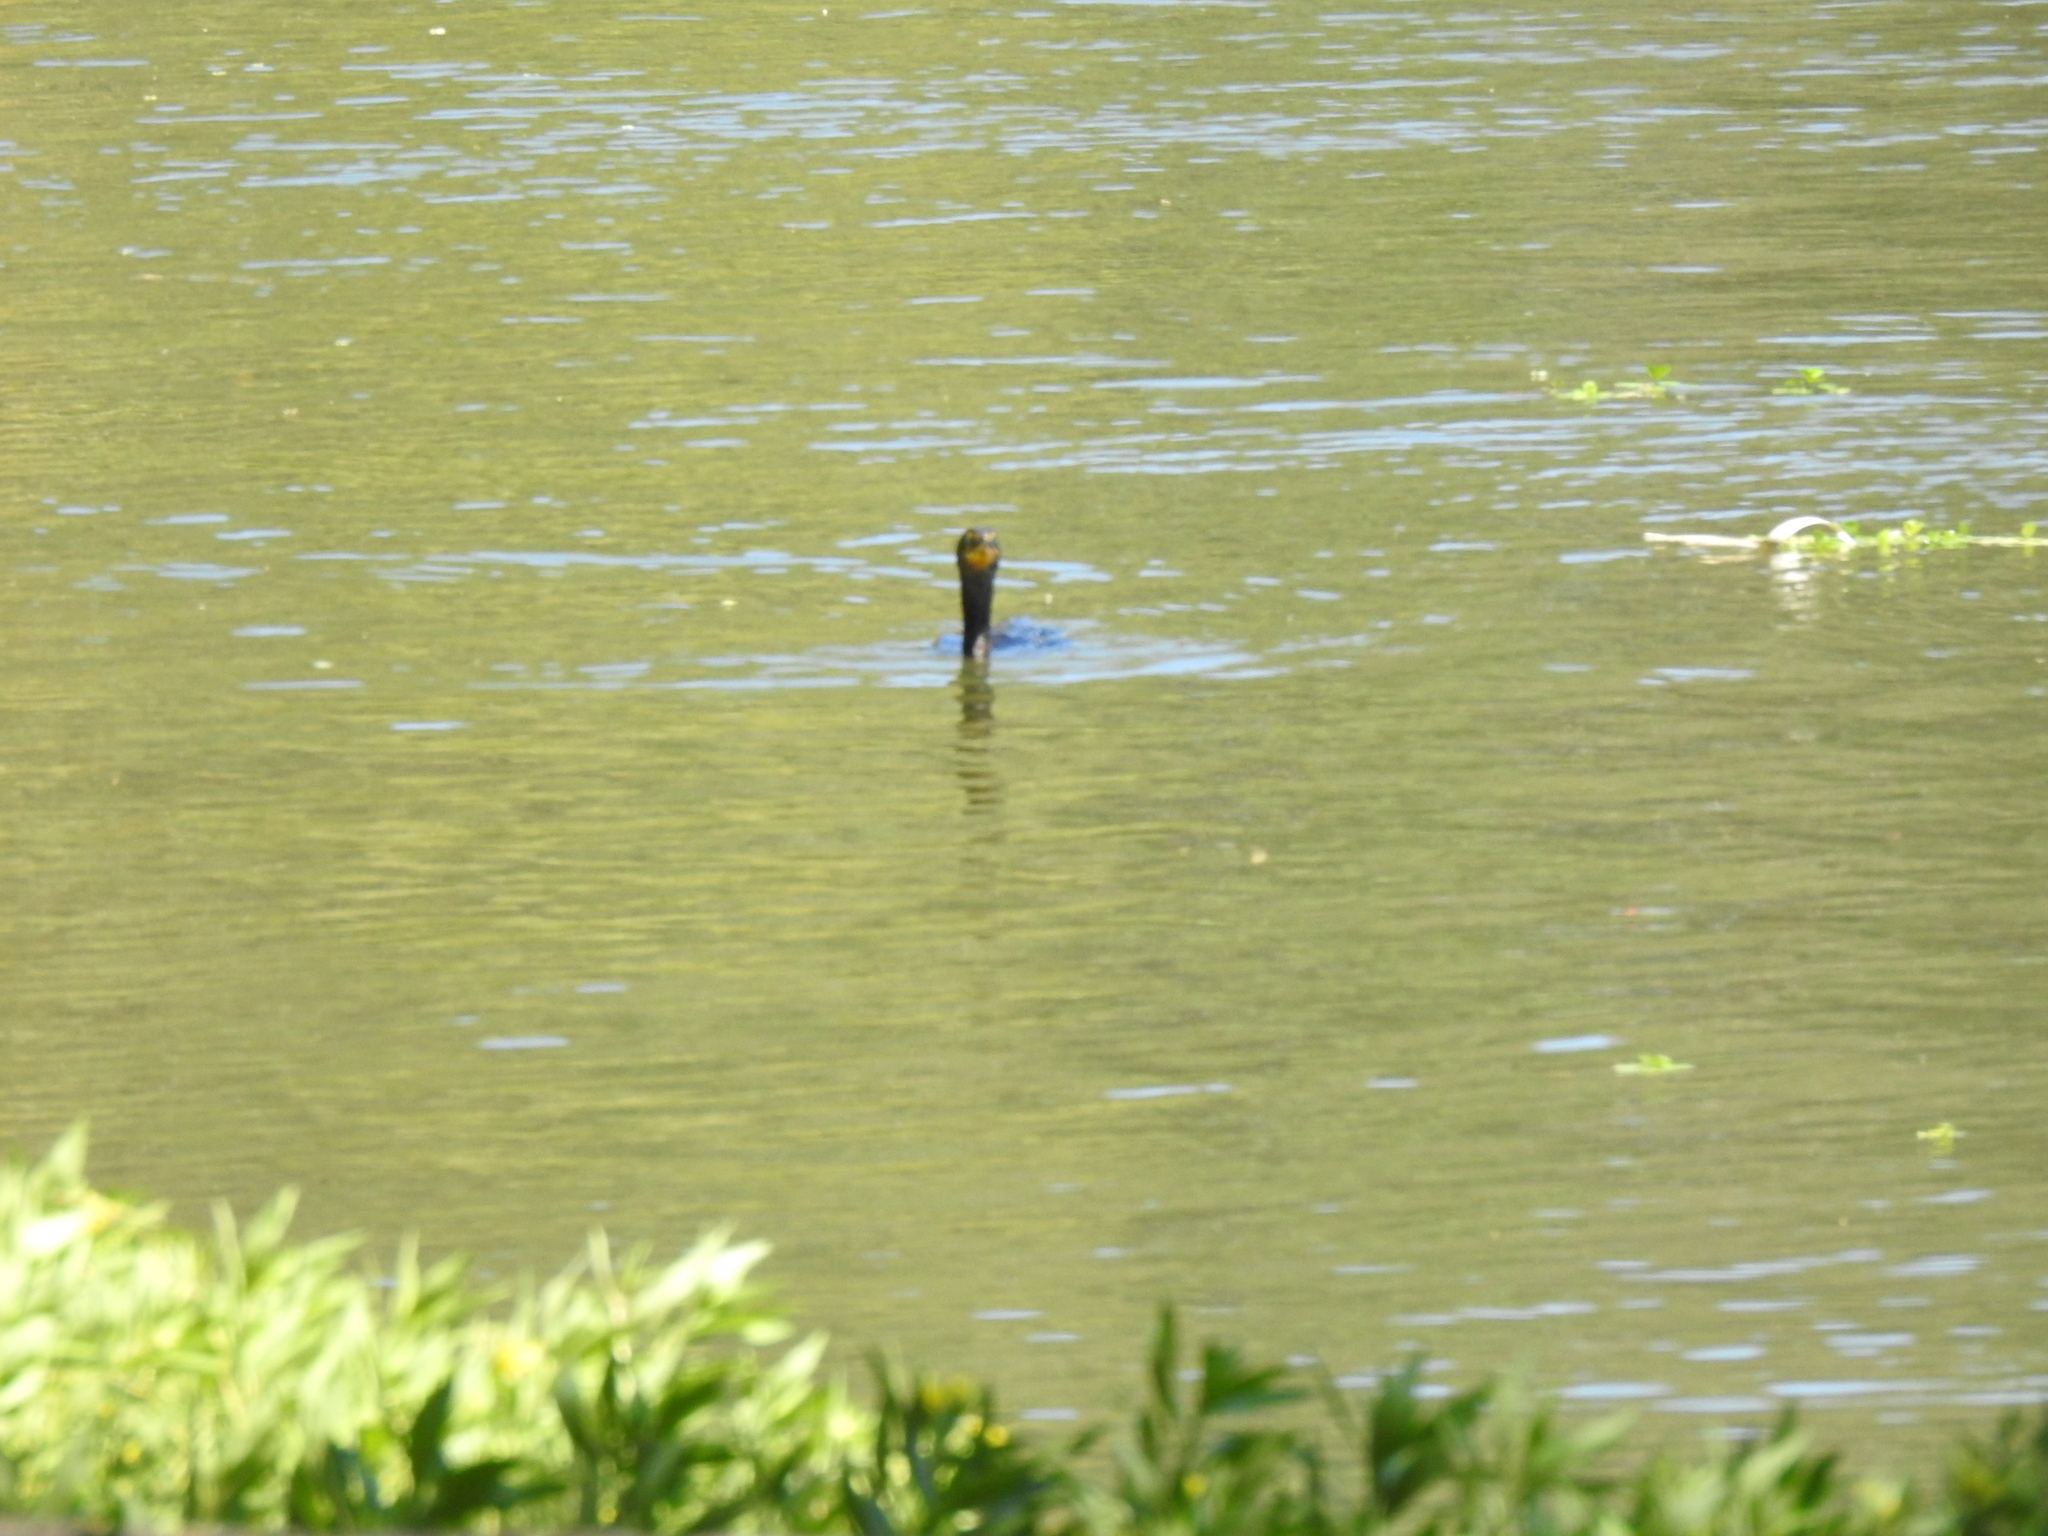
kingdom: Animalia
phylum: Chordata
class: Aves
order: Suliformes
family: Phalacrocoracidae
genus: Phalacrocorax
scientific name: Phalacrocorax auritus
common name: Double-crested cormorant
